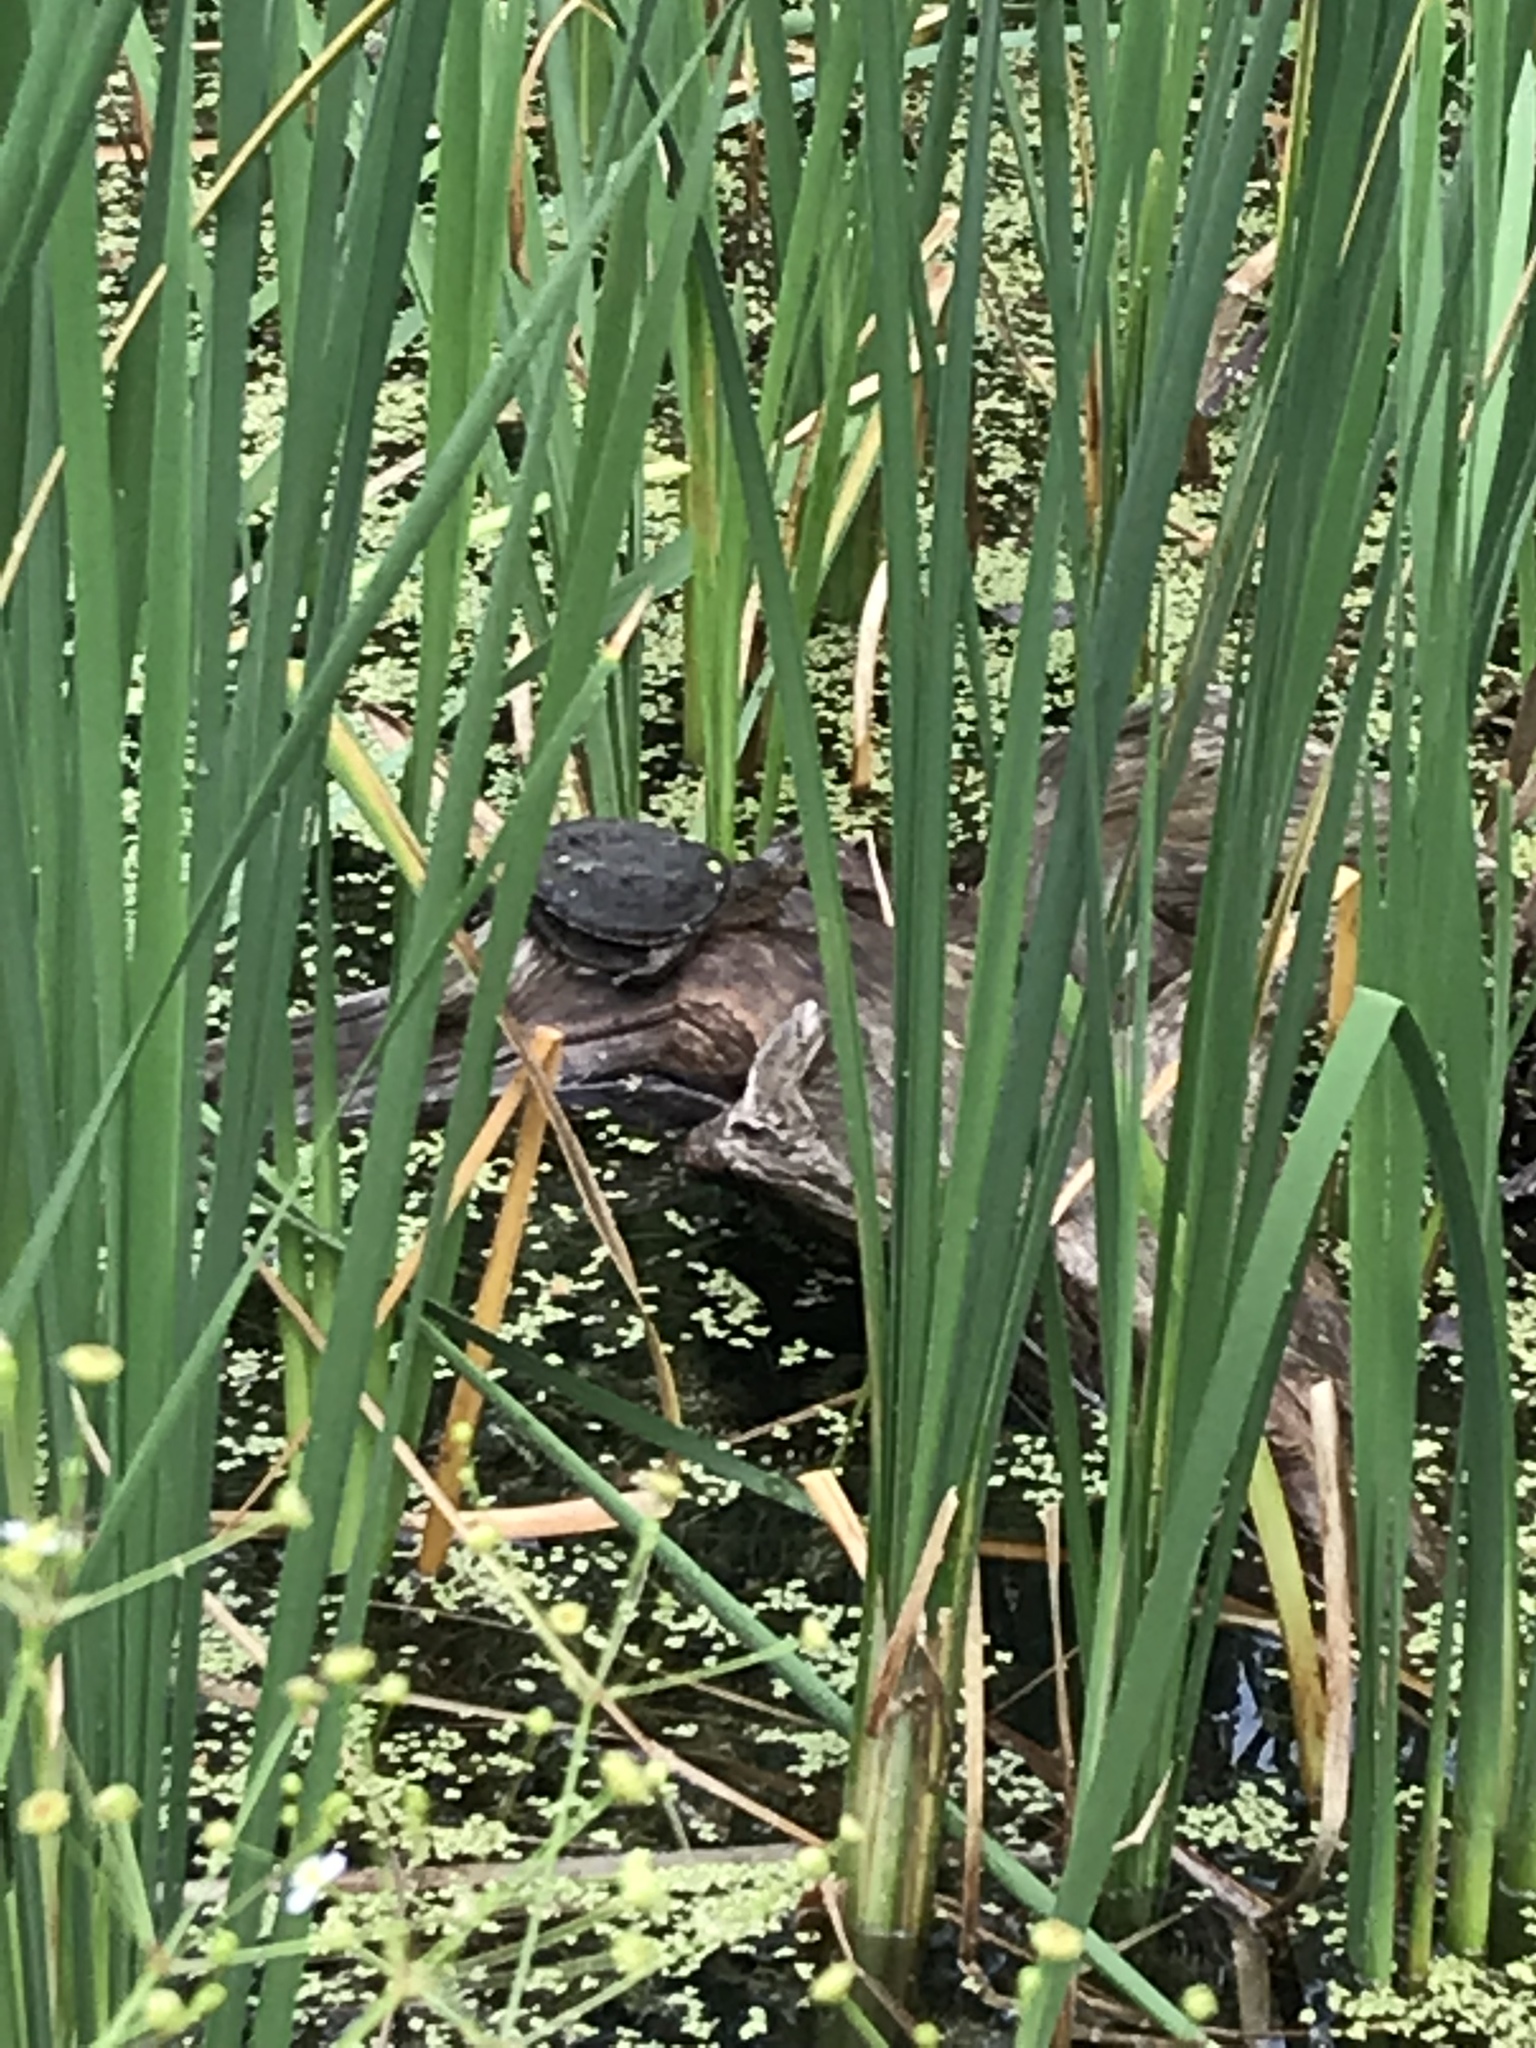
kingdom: Animalia
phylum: Chordata
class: Testudines
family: Chelydridae
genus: Chelydra
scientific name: Chelydra serpentina
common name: Common snapping turtle
